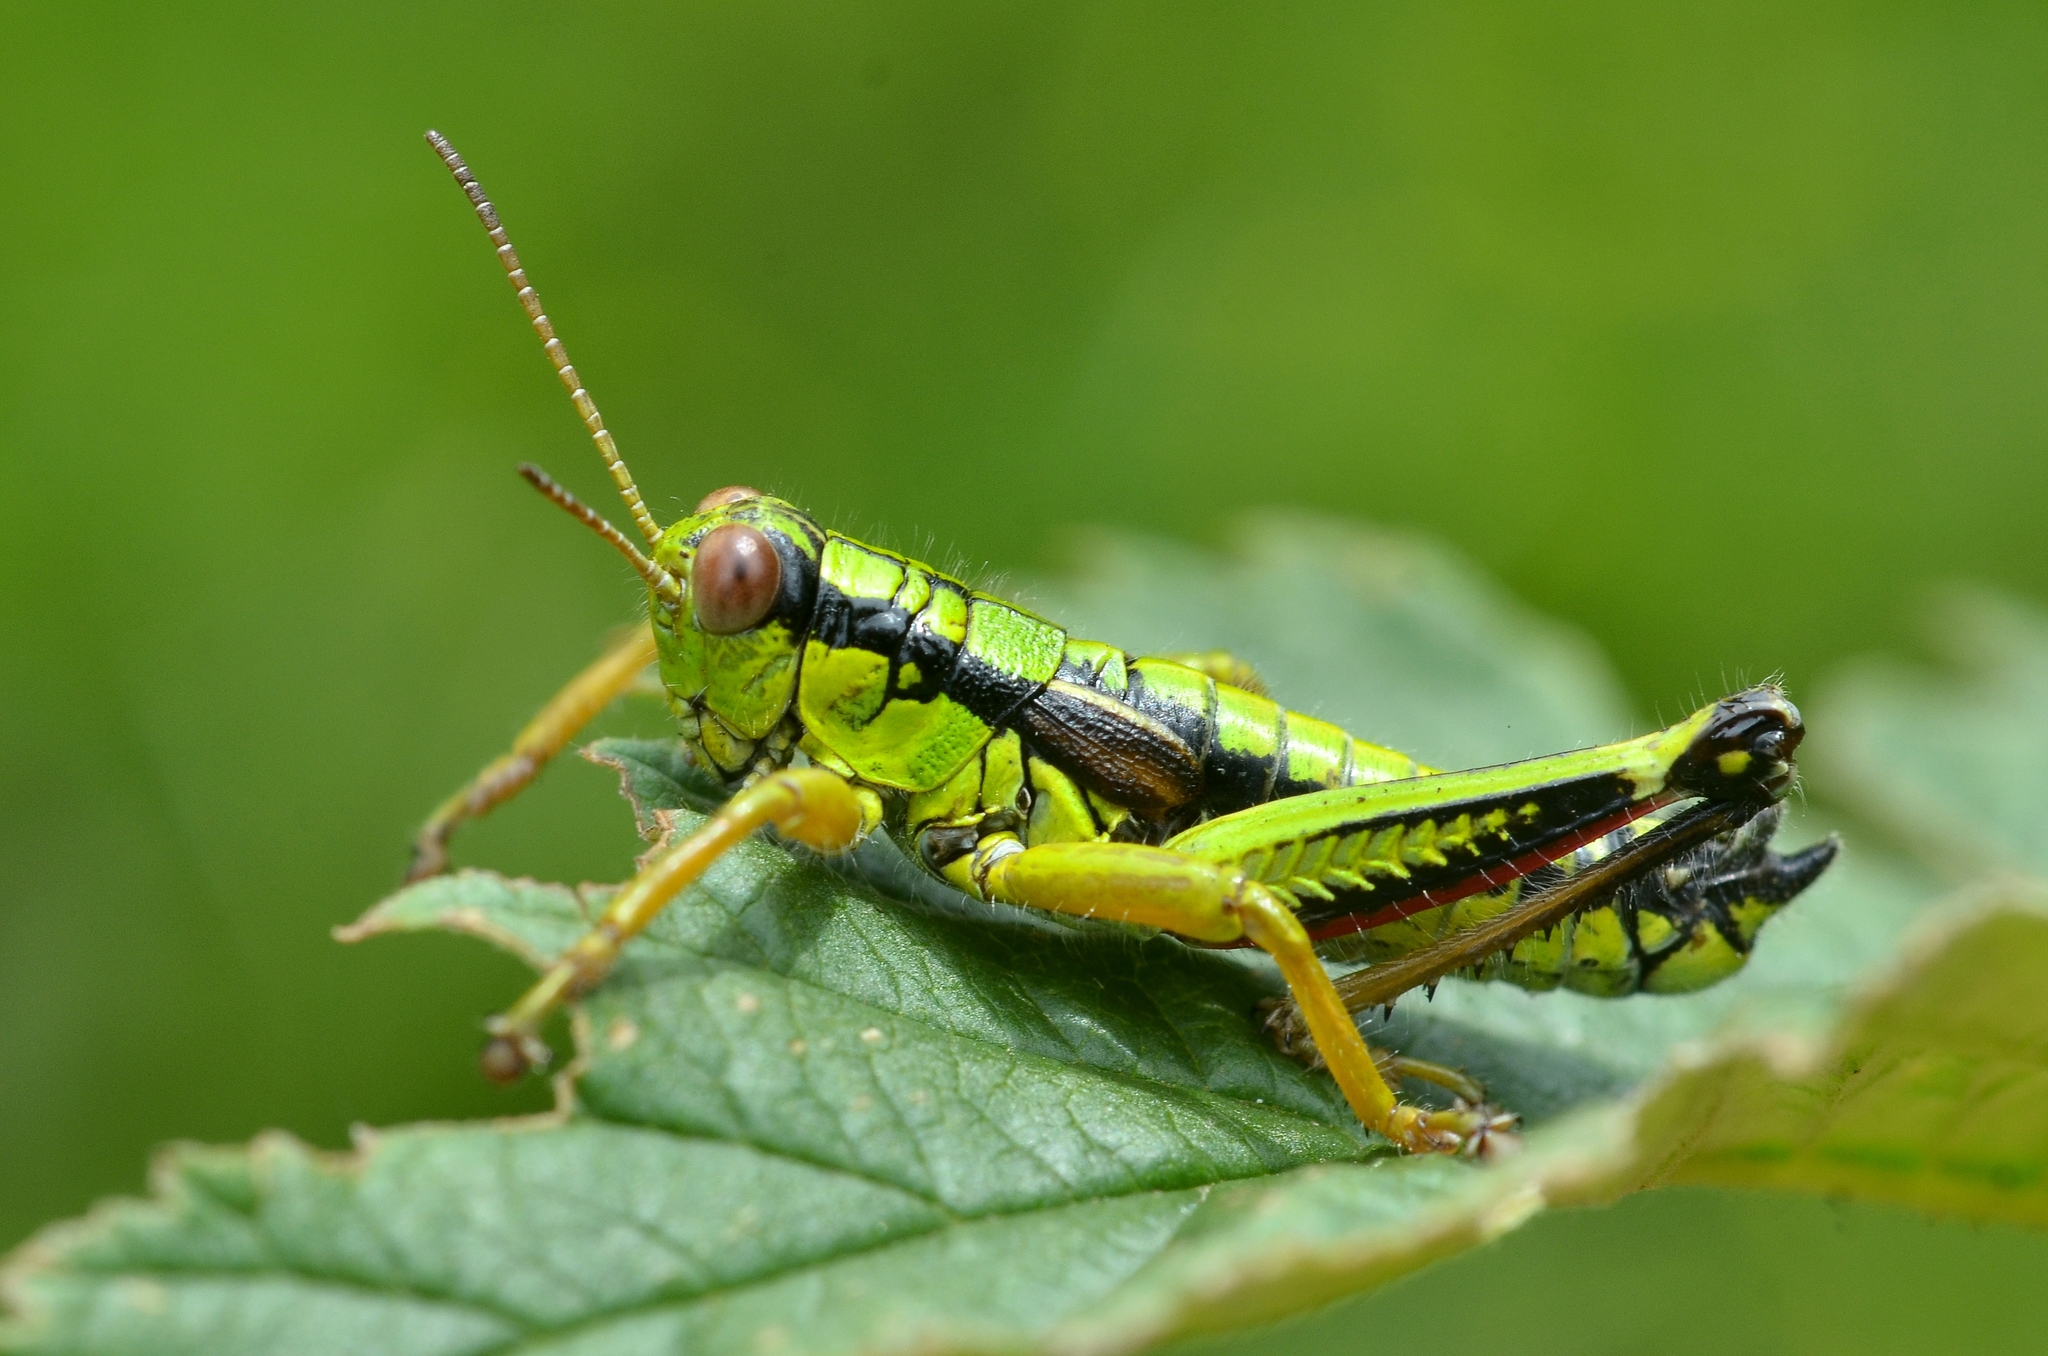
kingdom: Animalia
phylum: Arthropoda
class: Insecta
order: Orthoptera
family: Acrididae
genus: Miramella
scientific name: Miramella alpina
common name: Green mountain grasshopper
